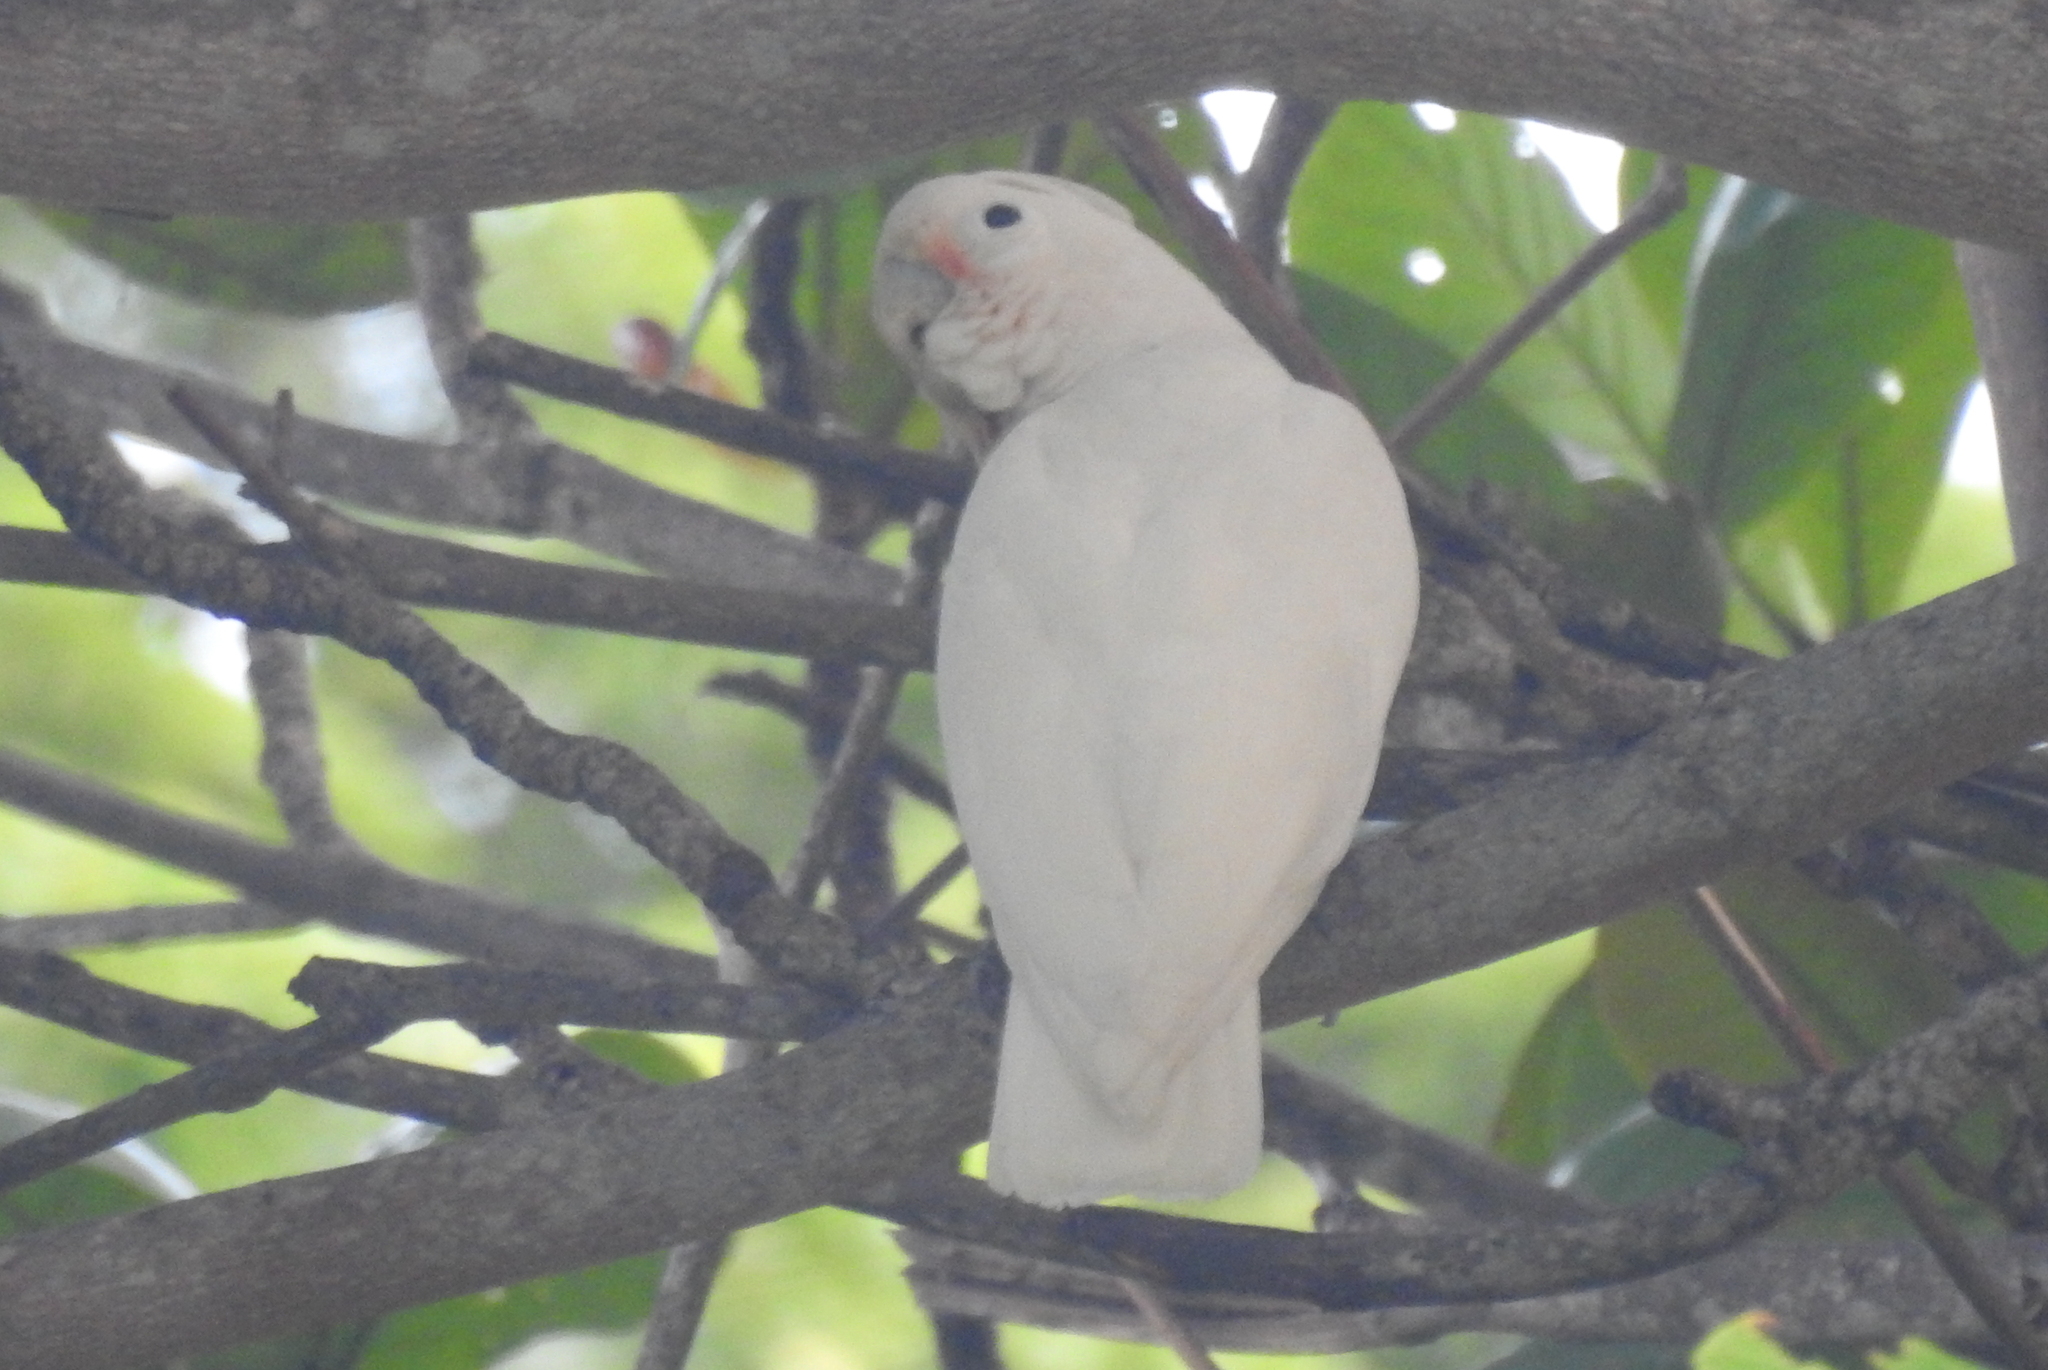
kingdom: Animalia
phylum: Chordata
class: Aves
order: Psittaciformes
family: Psittacidae
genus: Cacatua
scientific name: Cacatua goffiniana
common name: Tanimbar corella
